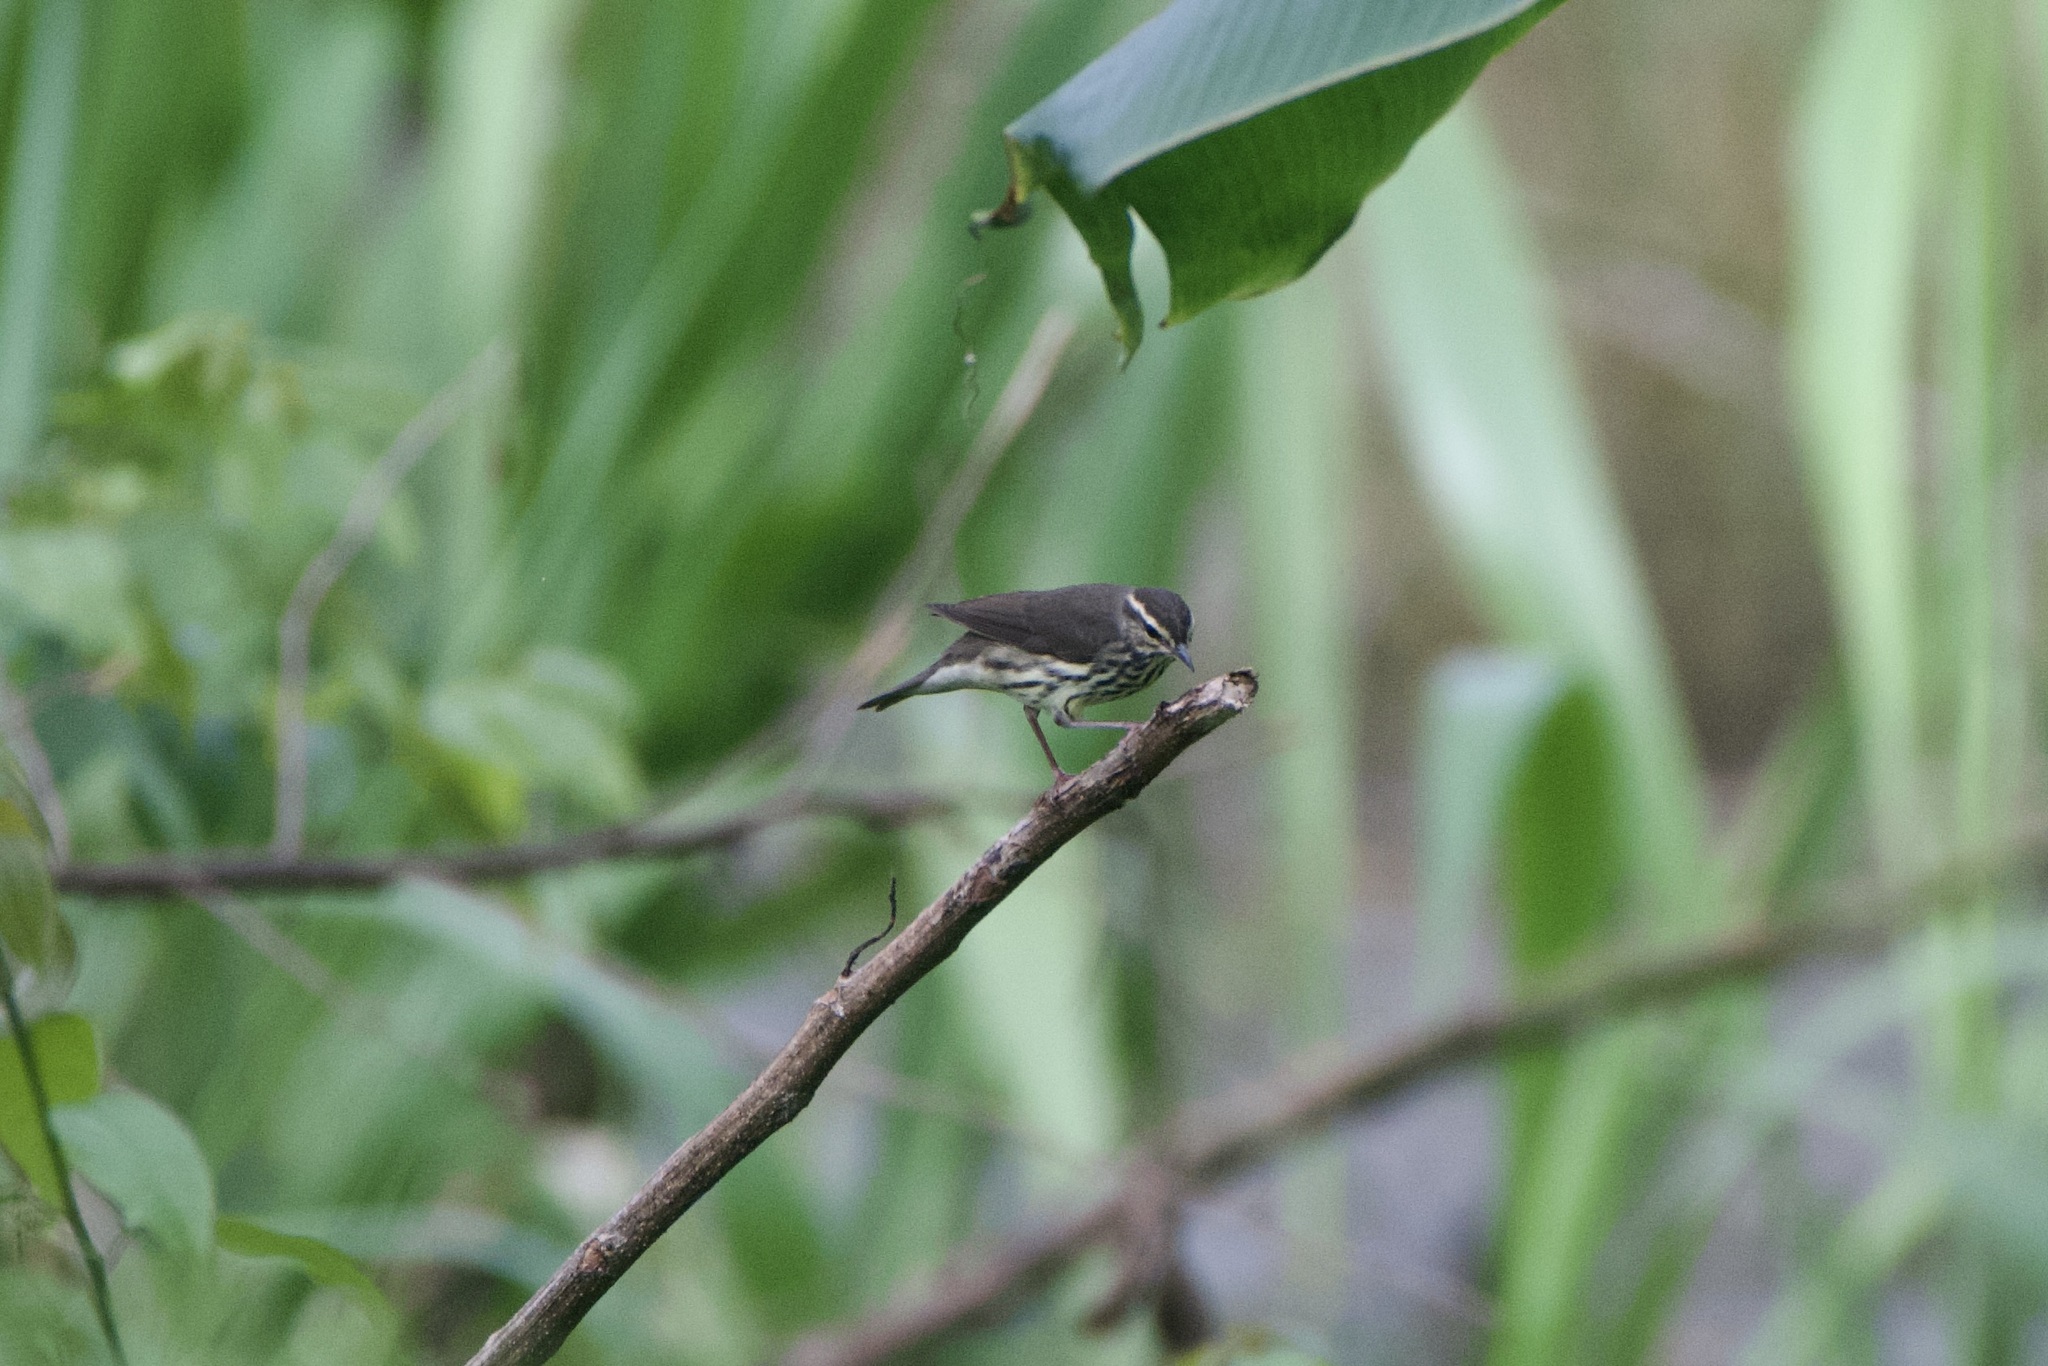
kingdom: Animalia
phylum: Chordata
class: Aves
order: Passeriformes
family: Parulidae
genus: Parkesia
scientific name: Parkesia noveboracensis
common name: Northern waterthrush
